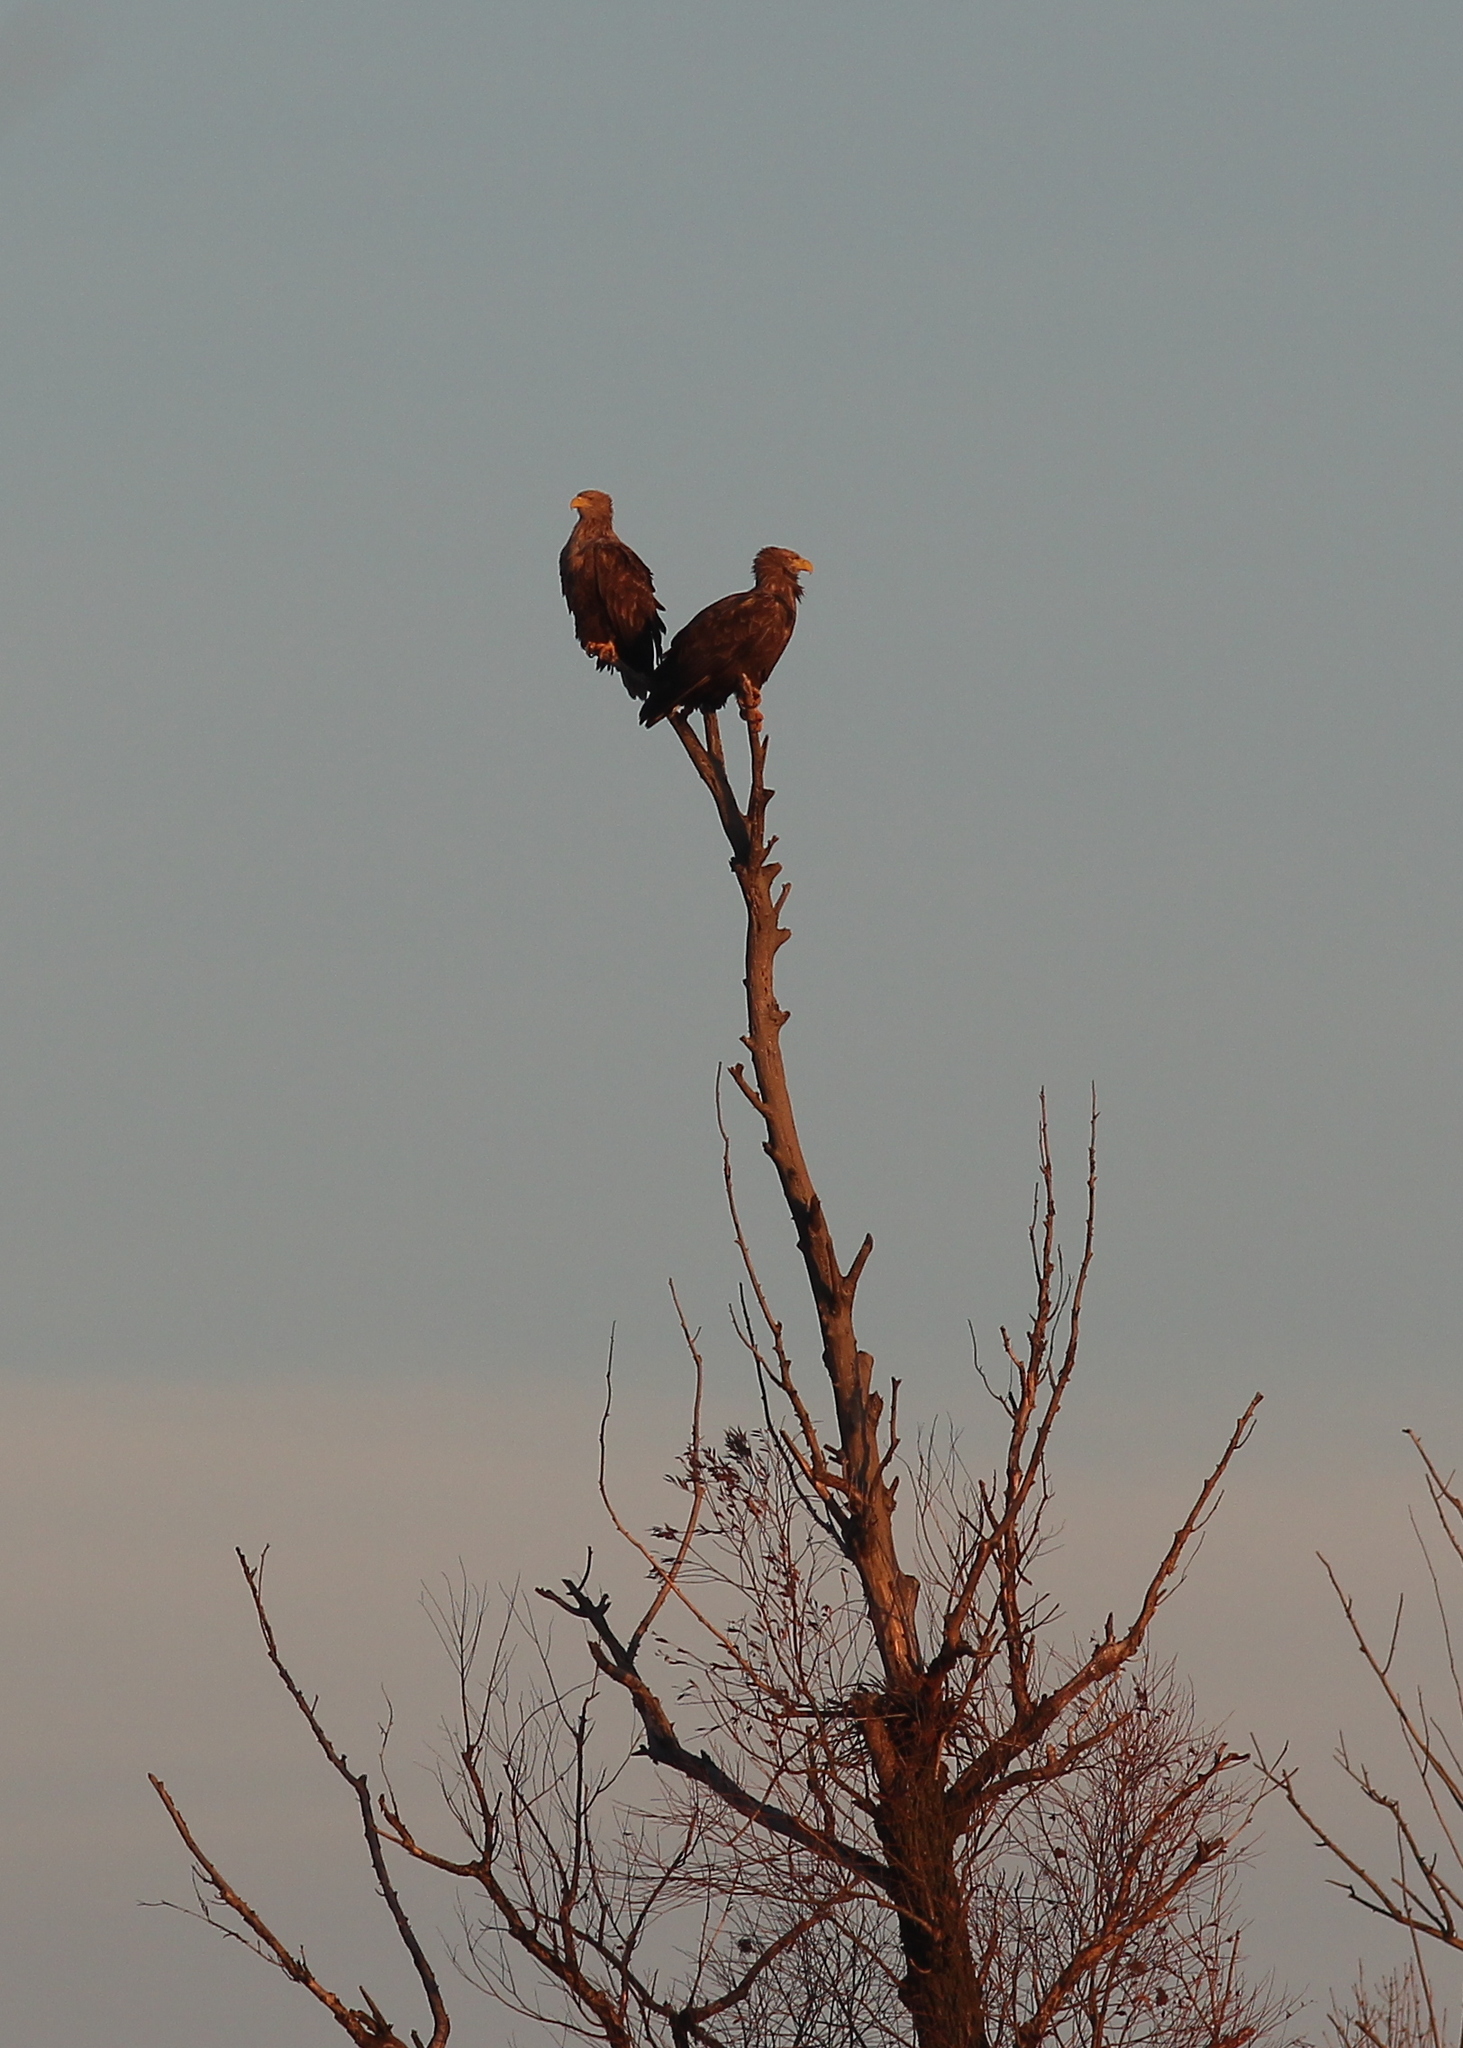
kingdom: Animalia
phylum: Chordata
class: Aves
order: Accipitriformes
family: Accipitridae
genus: Haliaeetus
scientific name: Haliaeetus albicilla
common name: White-tailed eagle
